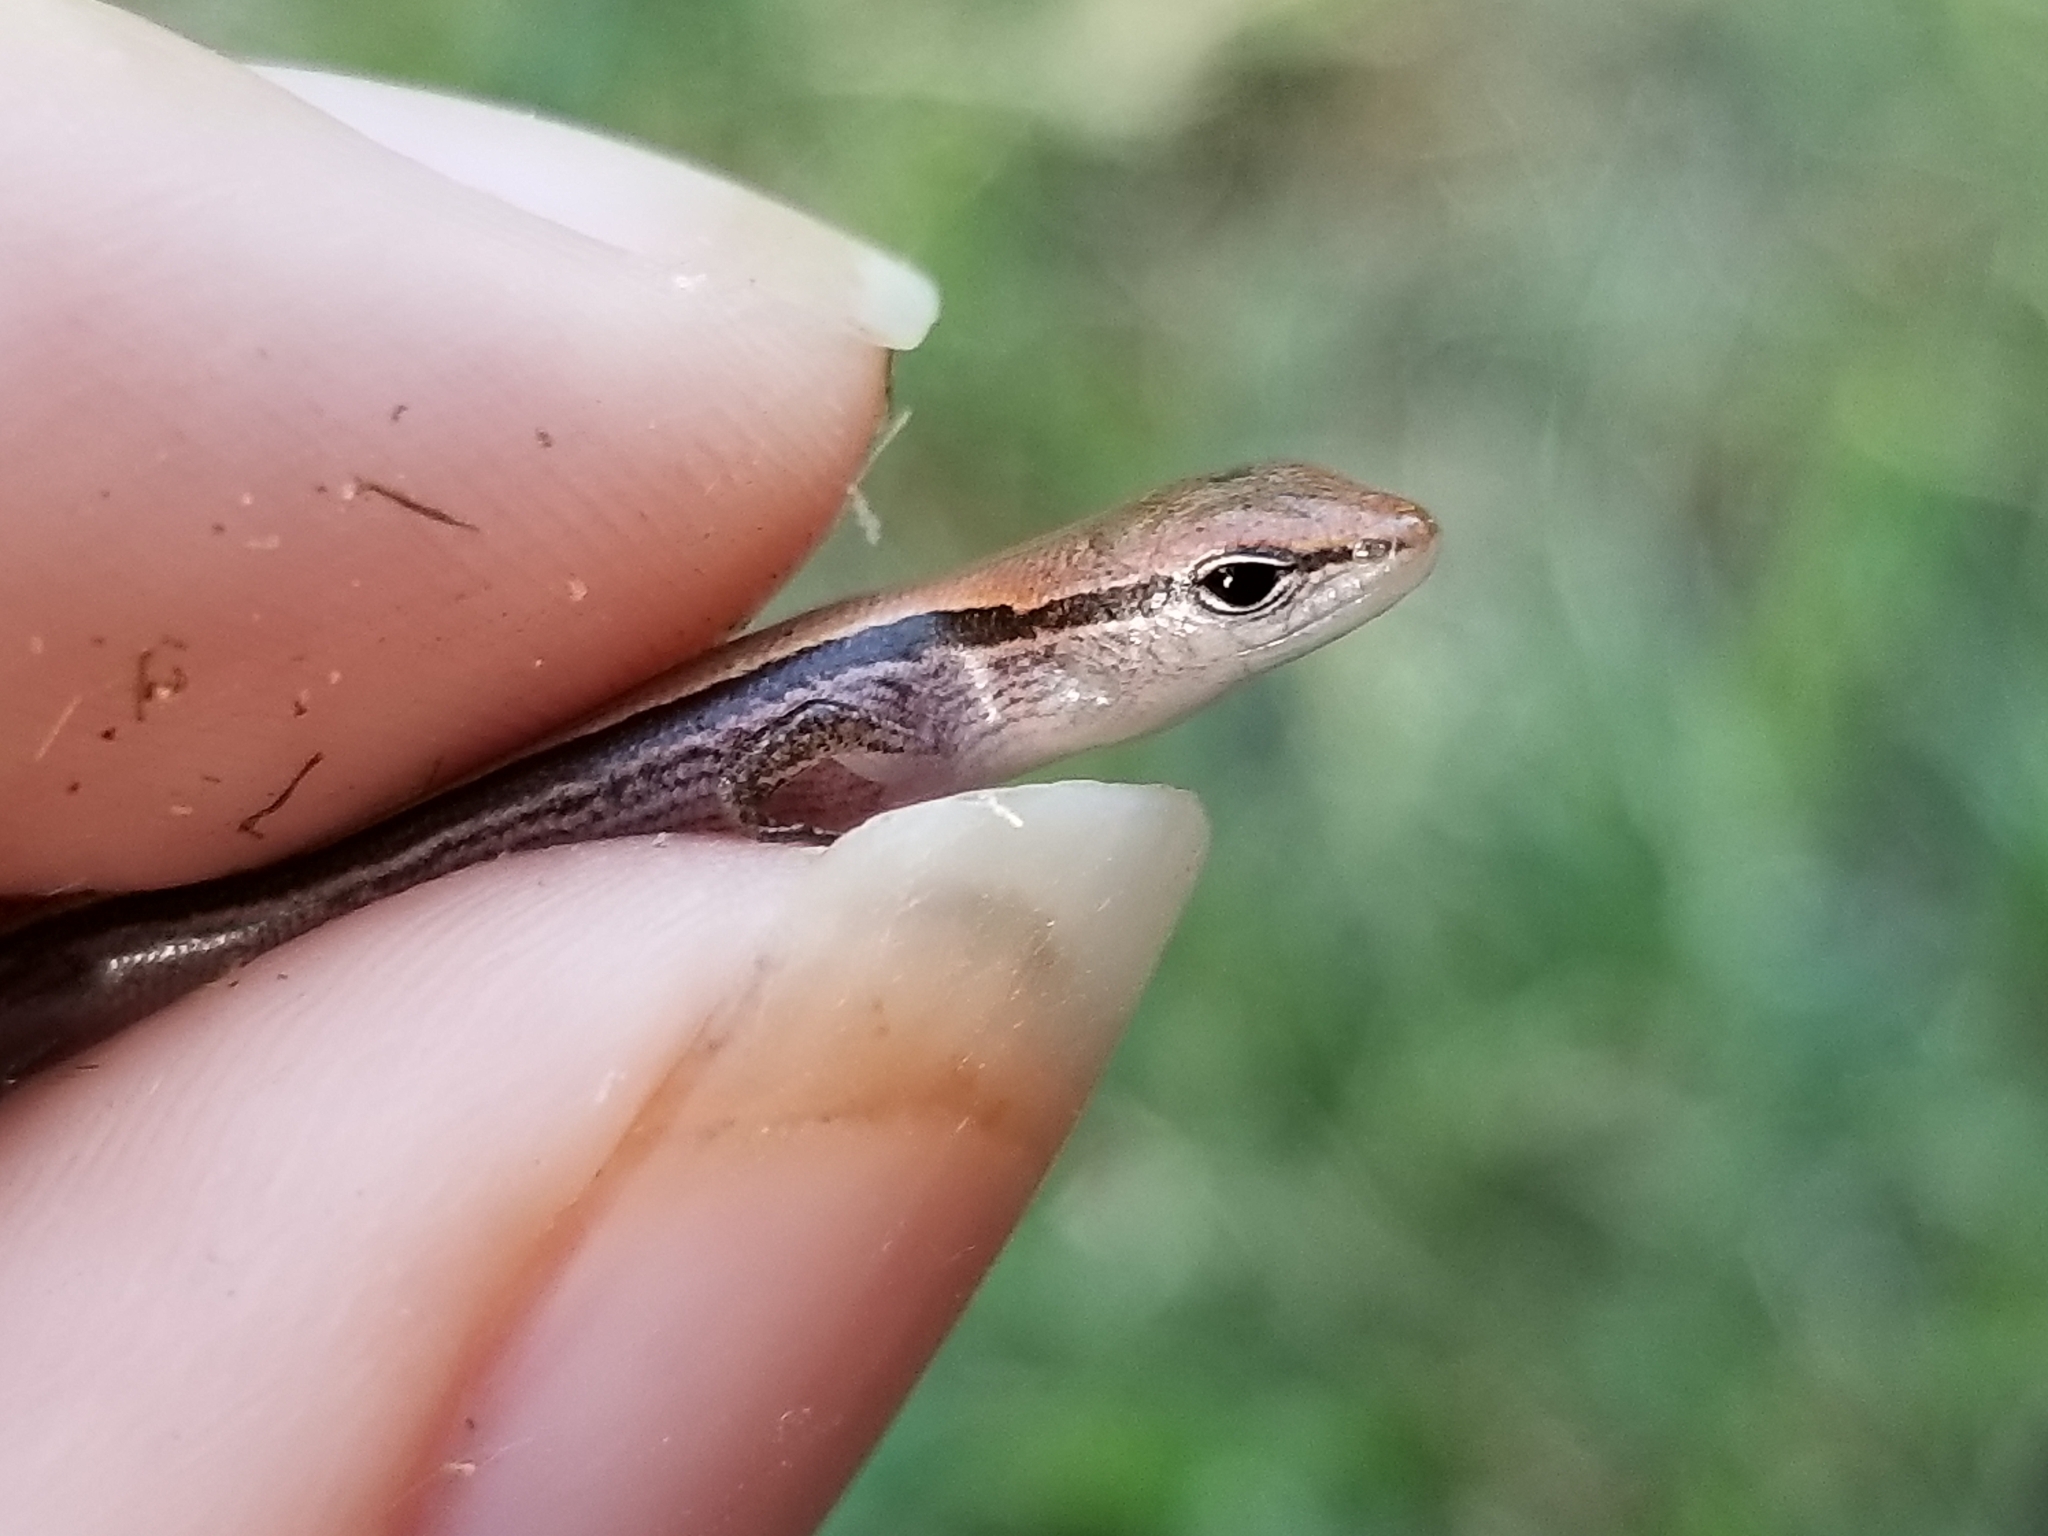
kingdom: Animalia
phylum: Chordata
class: Squamata
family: Scincidae
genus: Scincella
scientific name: Scincella lateralis
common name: Ground skink
